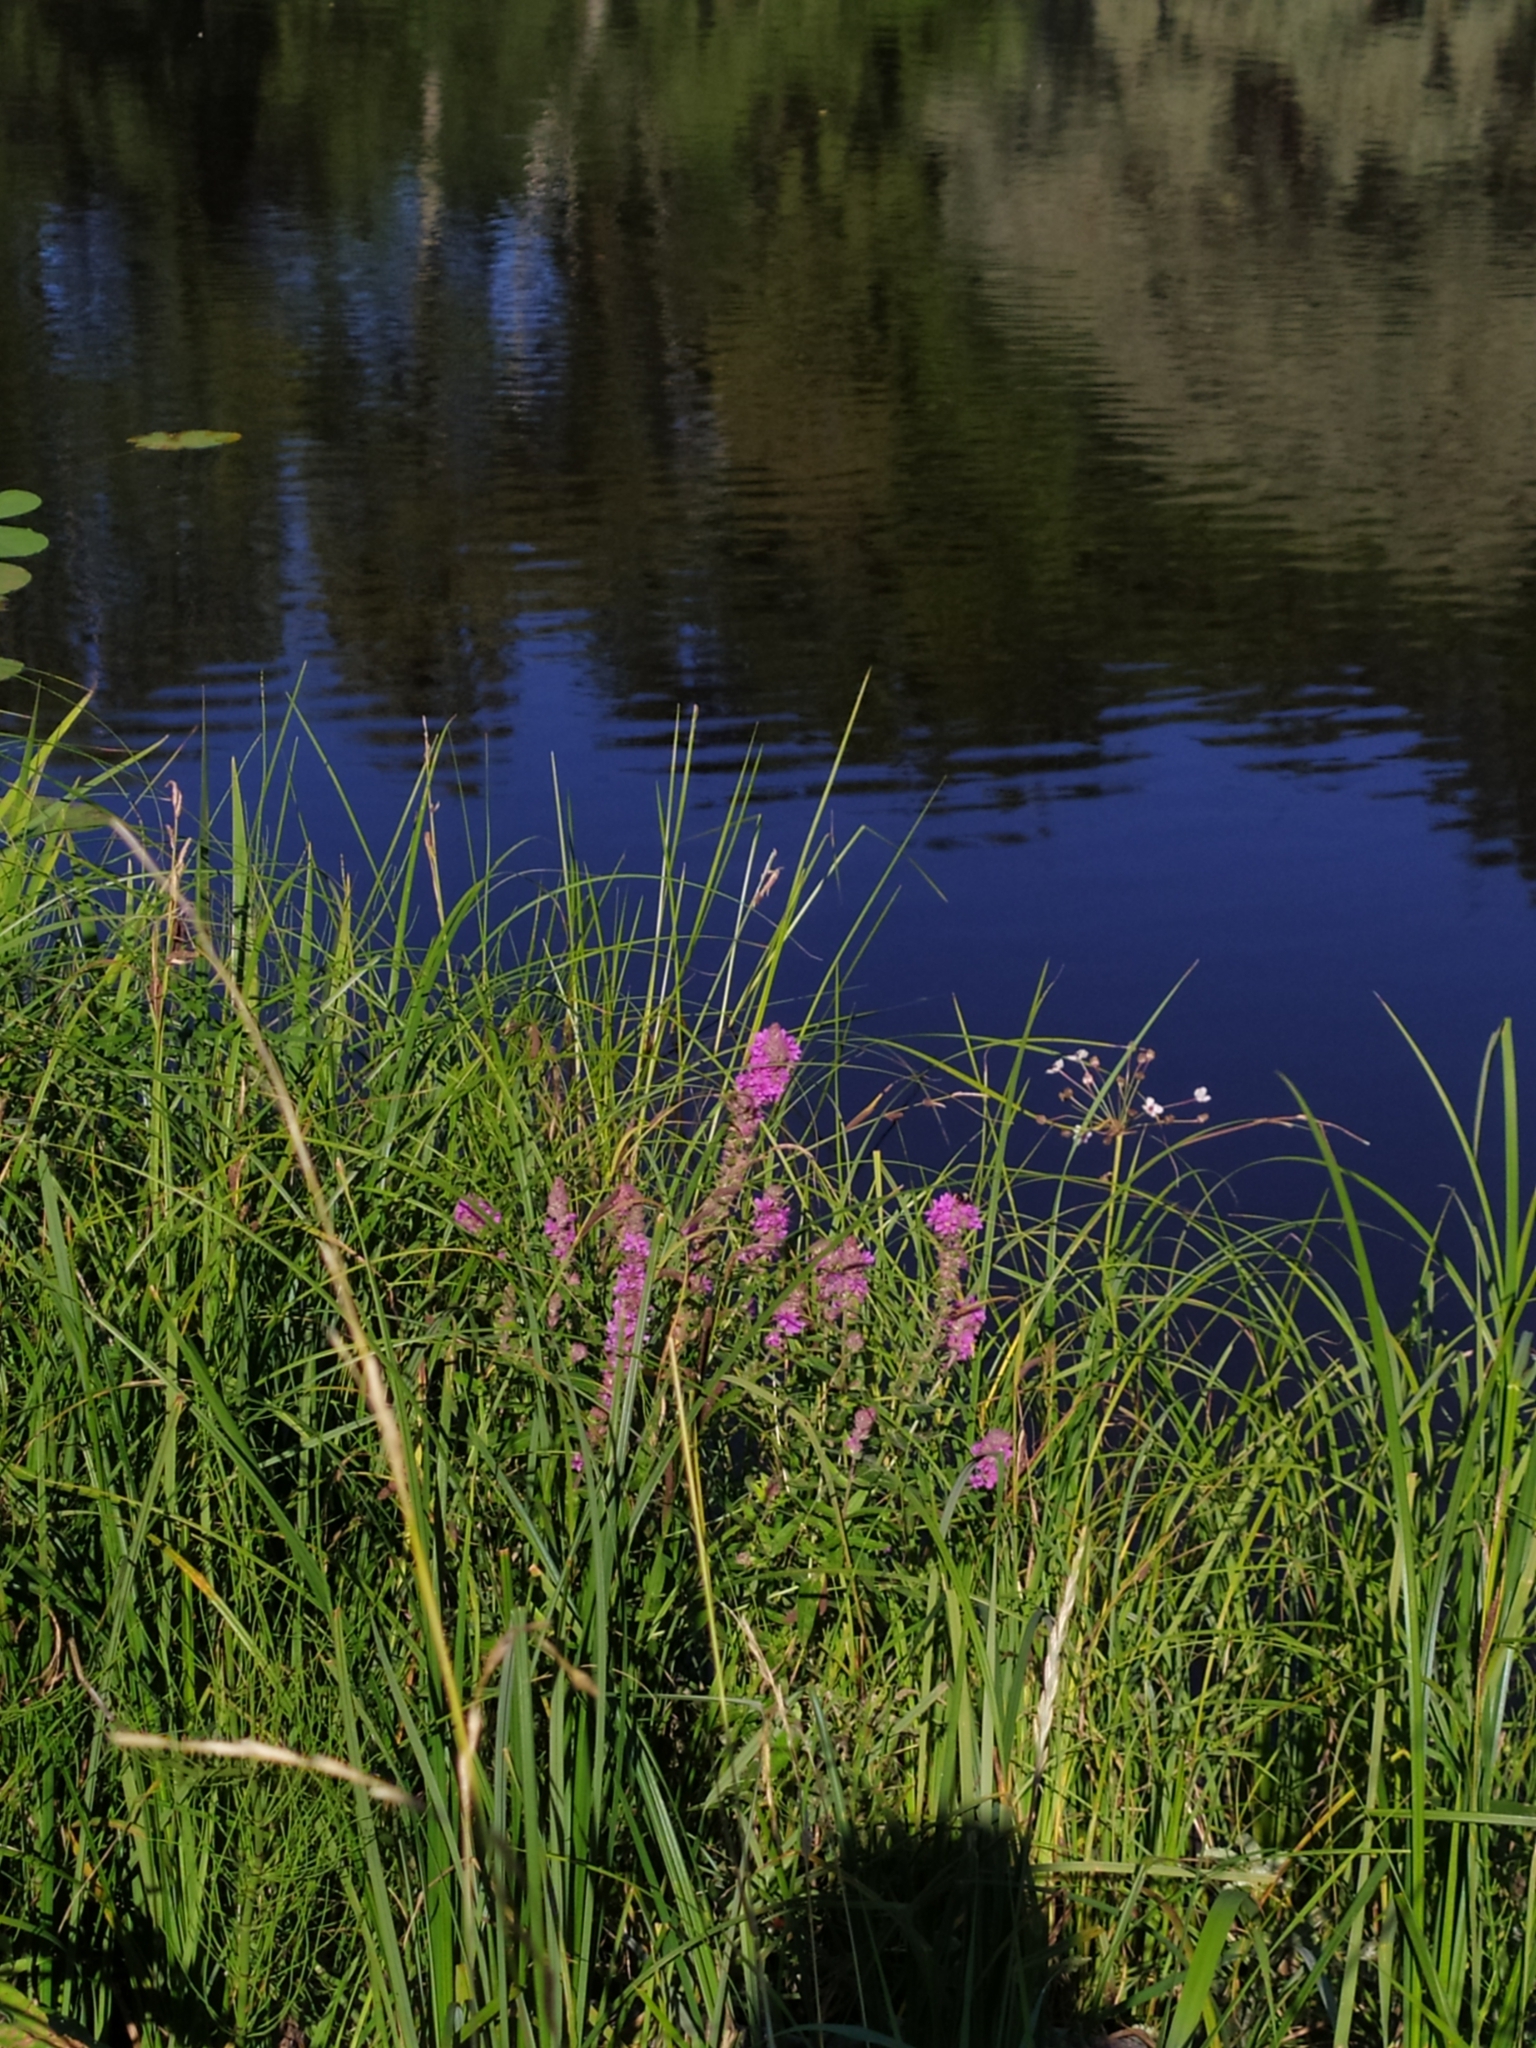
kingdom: Plantae
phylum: Tracheophyta
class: Magnoliopsida
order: Myrtales
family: Lythraceae
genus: Lythrum
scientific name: Lythrum salicaria
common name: Purple loosestrife
